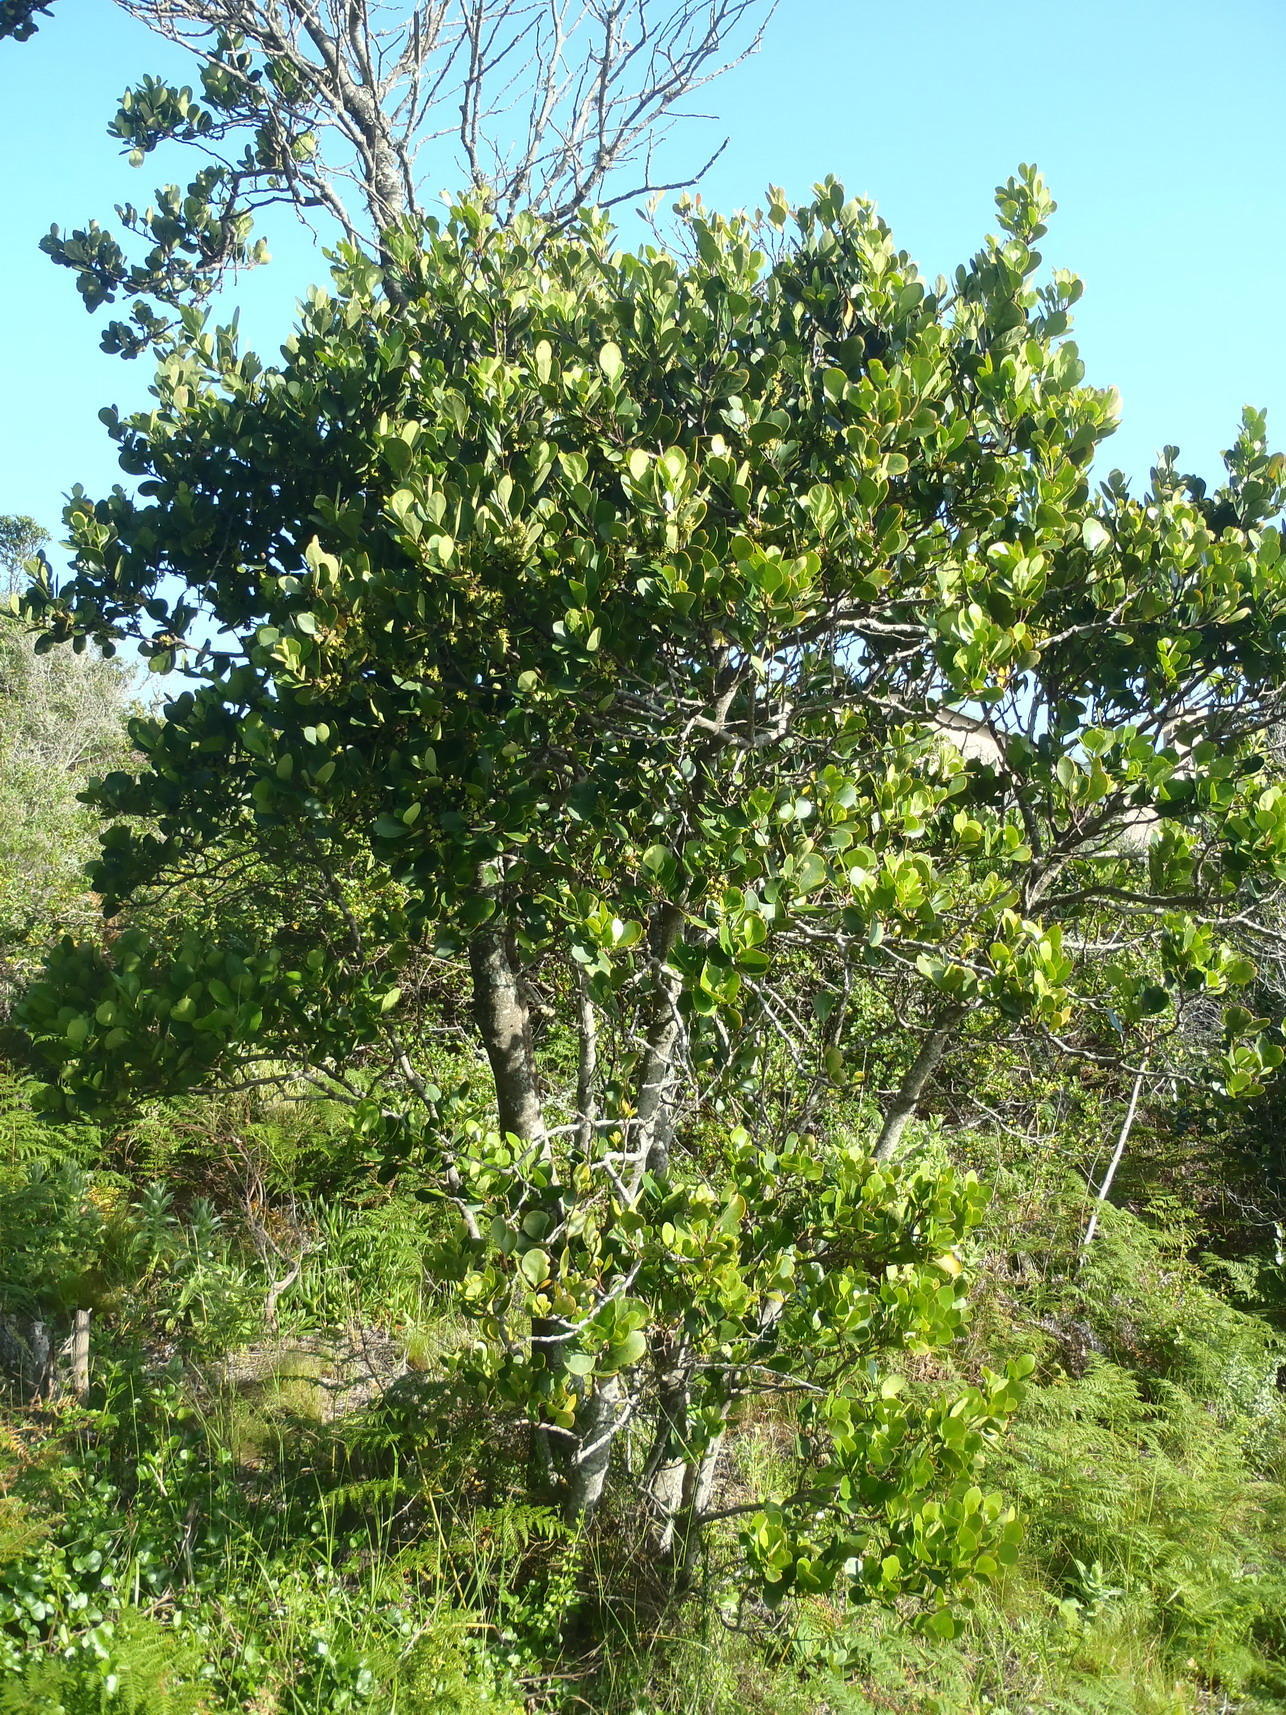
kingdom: Plantae
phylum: Tracheophyta
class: Magnoliopsida
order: Celastrales
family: Celastraceae
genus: Pterocelastrus
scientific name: Pterocelastrus tricuspidatus
